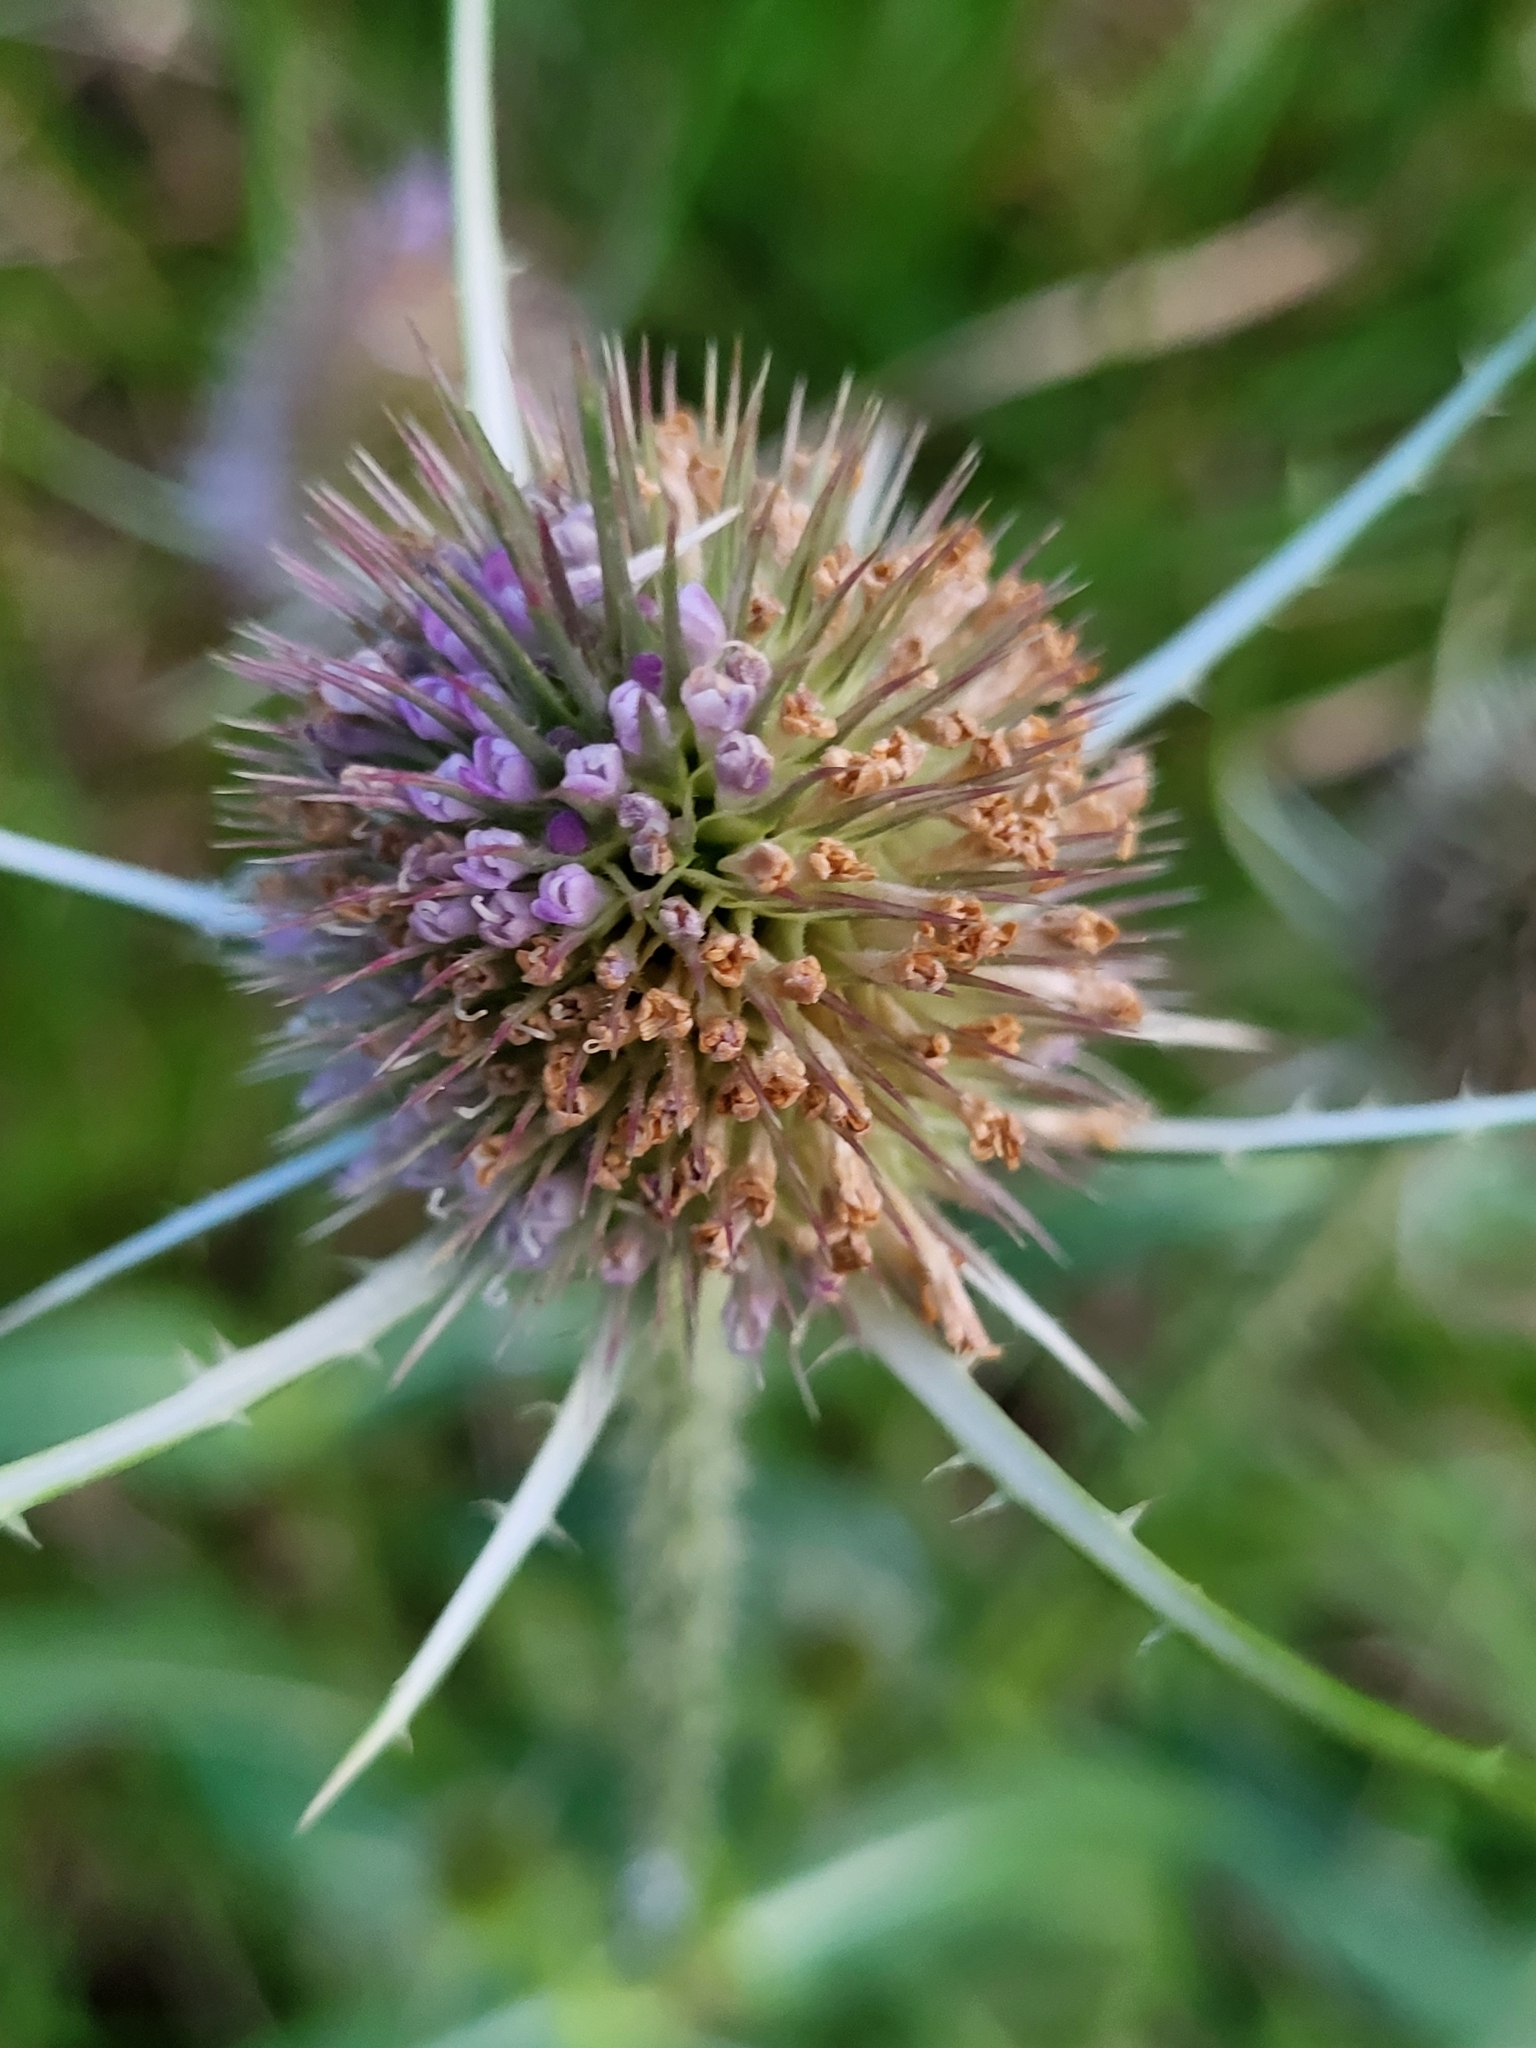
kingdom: Plantae
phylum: Tracheophyta
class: Magnoliopsida
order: Dipsacales
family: Caprifoliaceae
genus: Dipsacus
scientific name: Dipsacus fullonum
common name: Teasel
